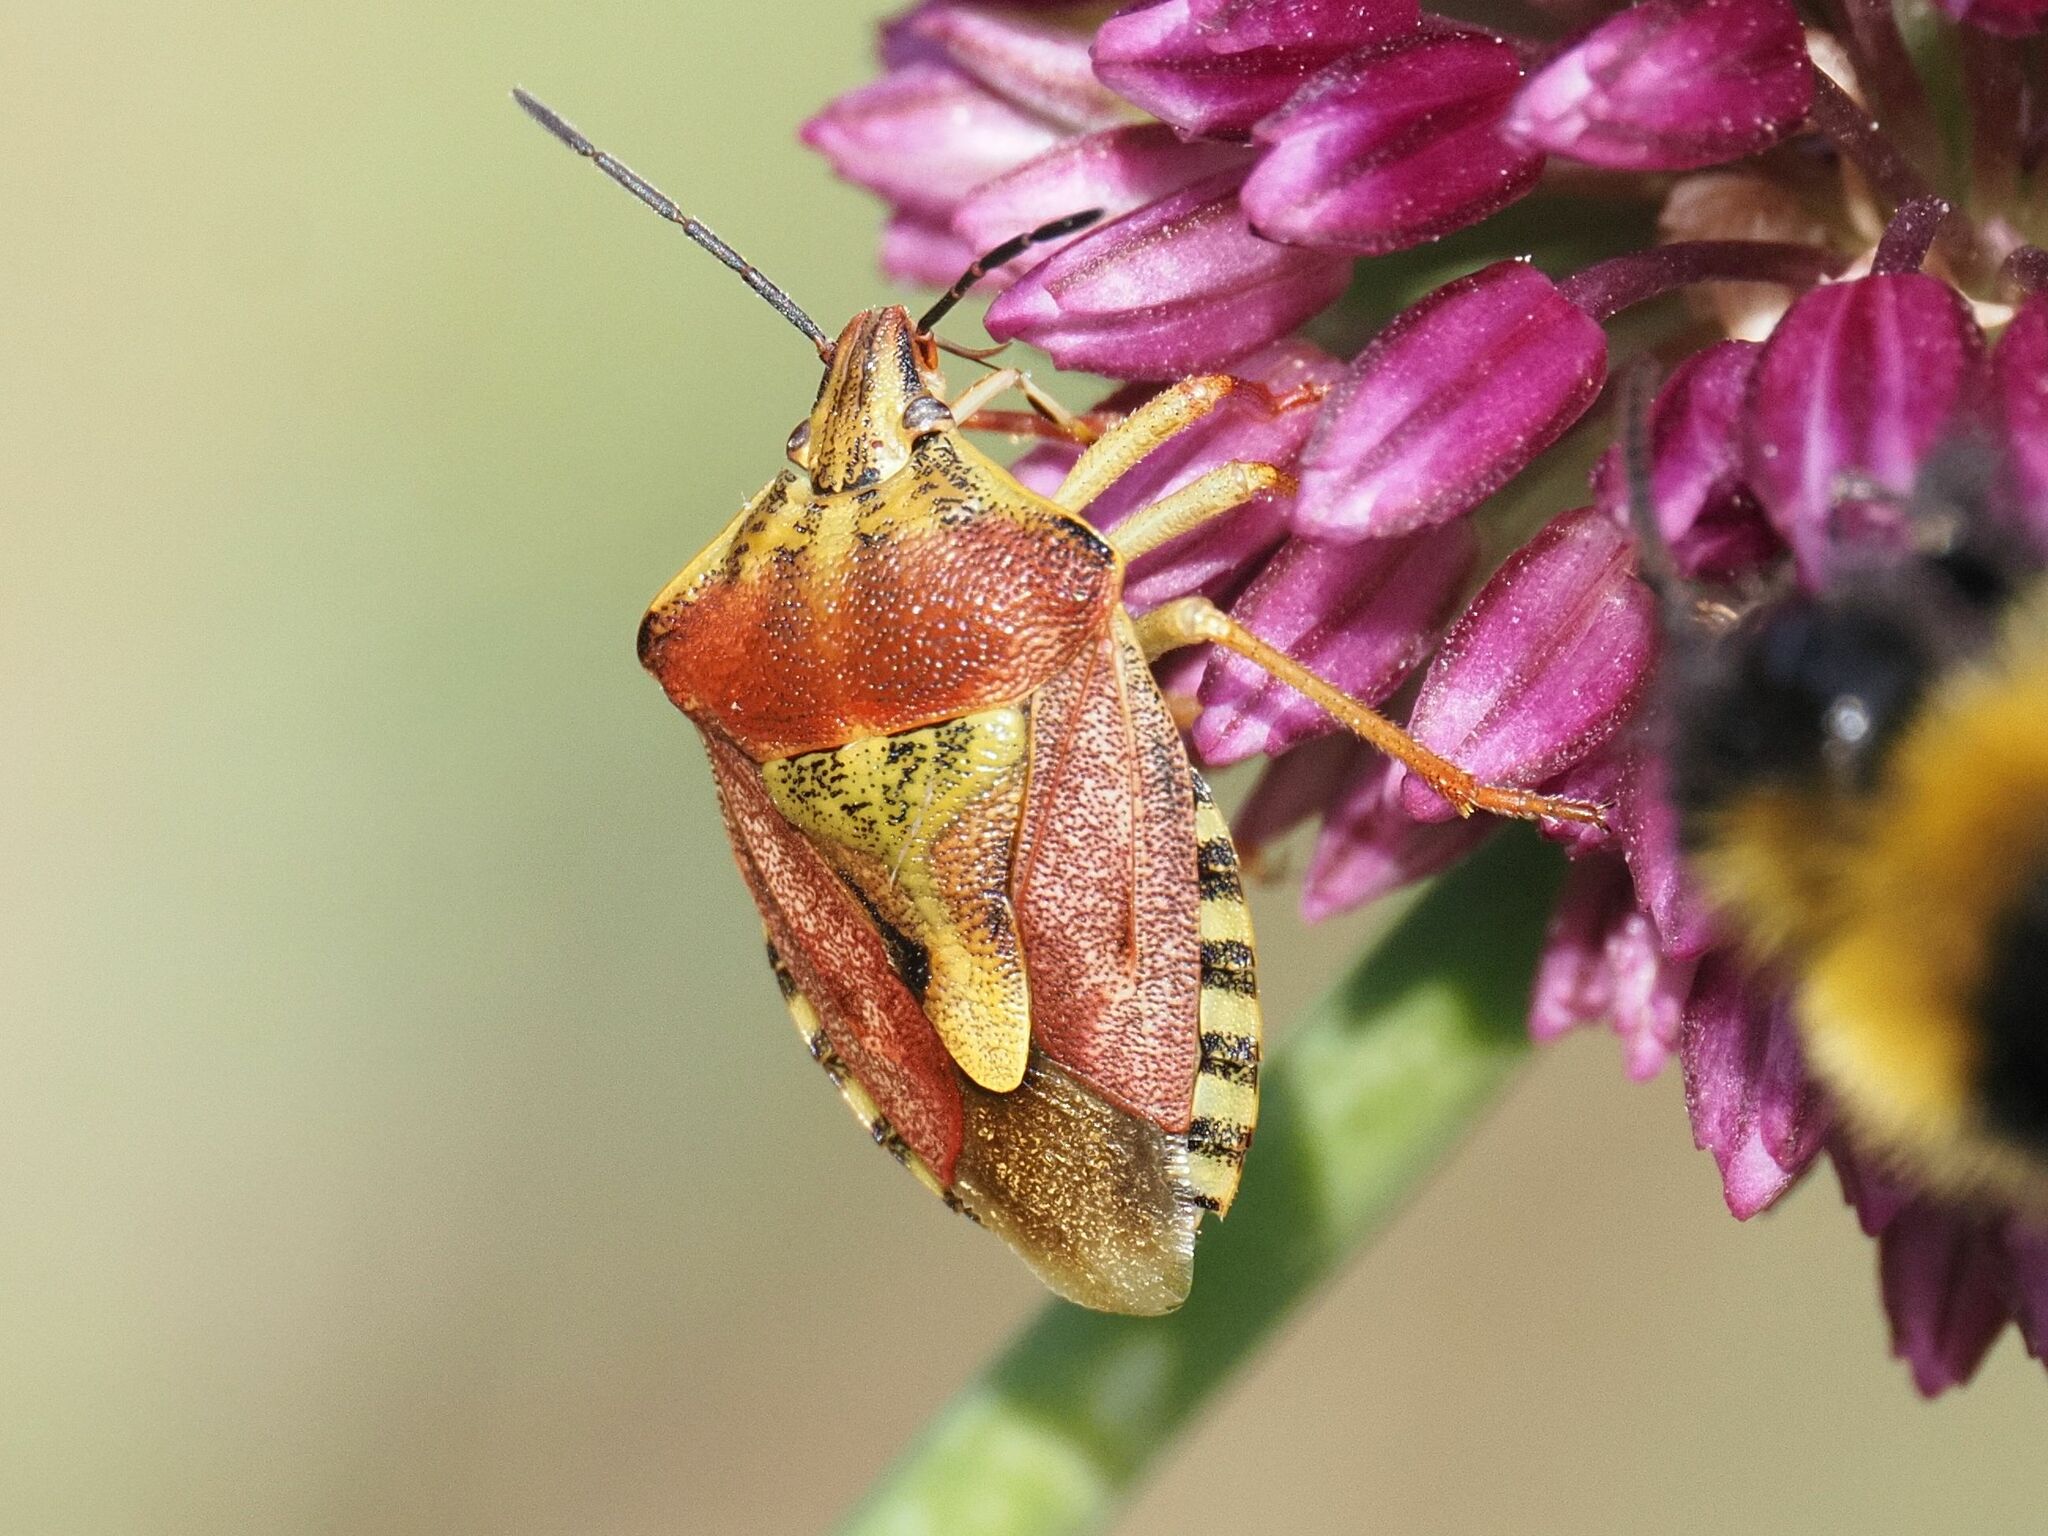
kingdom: Animalia
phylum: Arthropoda
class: Insecta
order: Hemiptera
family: Pentatomidae
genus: Carpocoris
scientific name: Carpocoris purpureipennis
